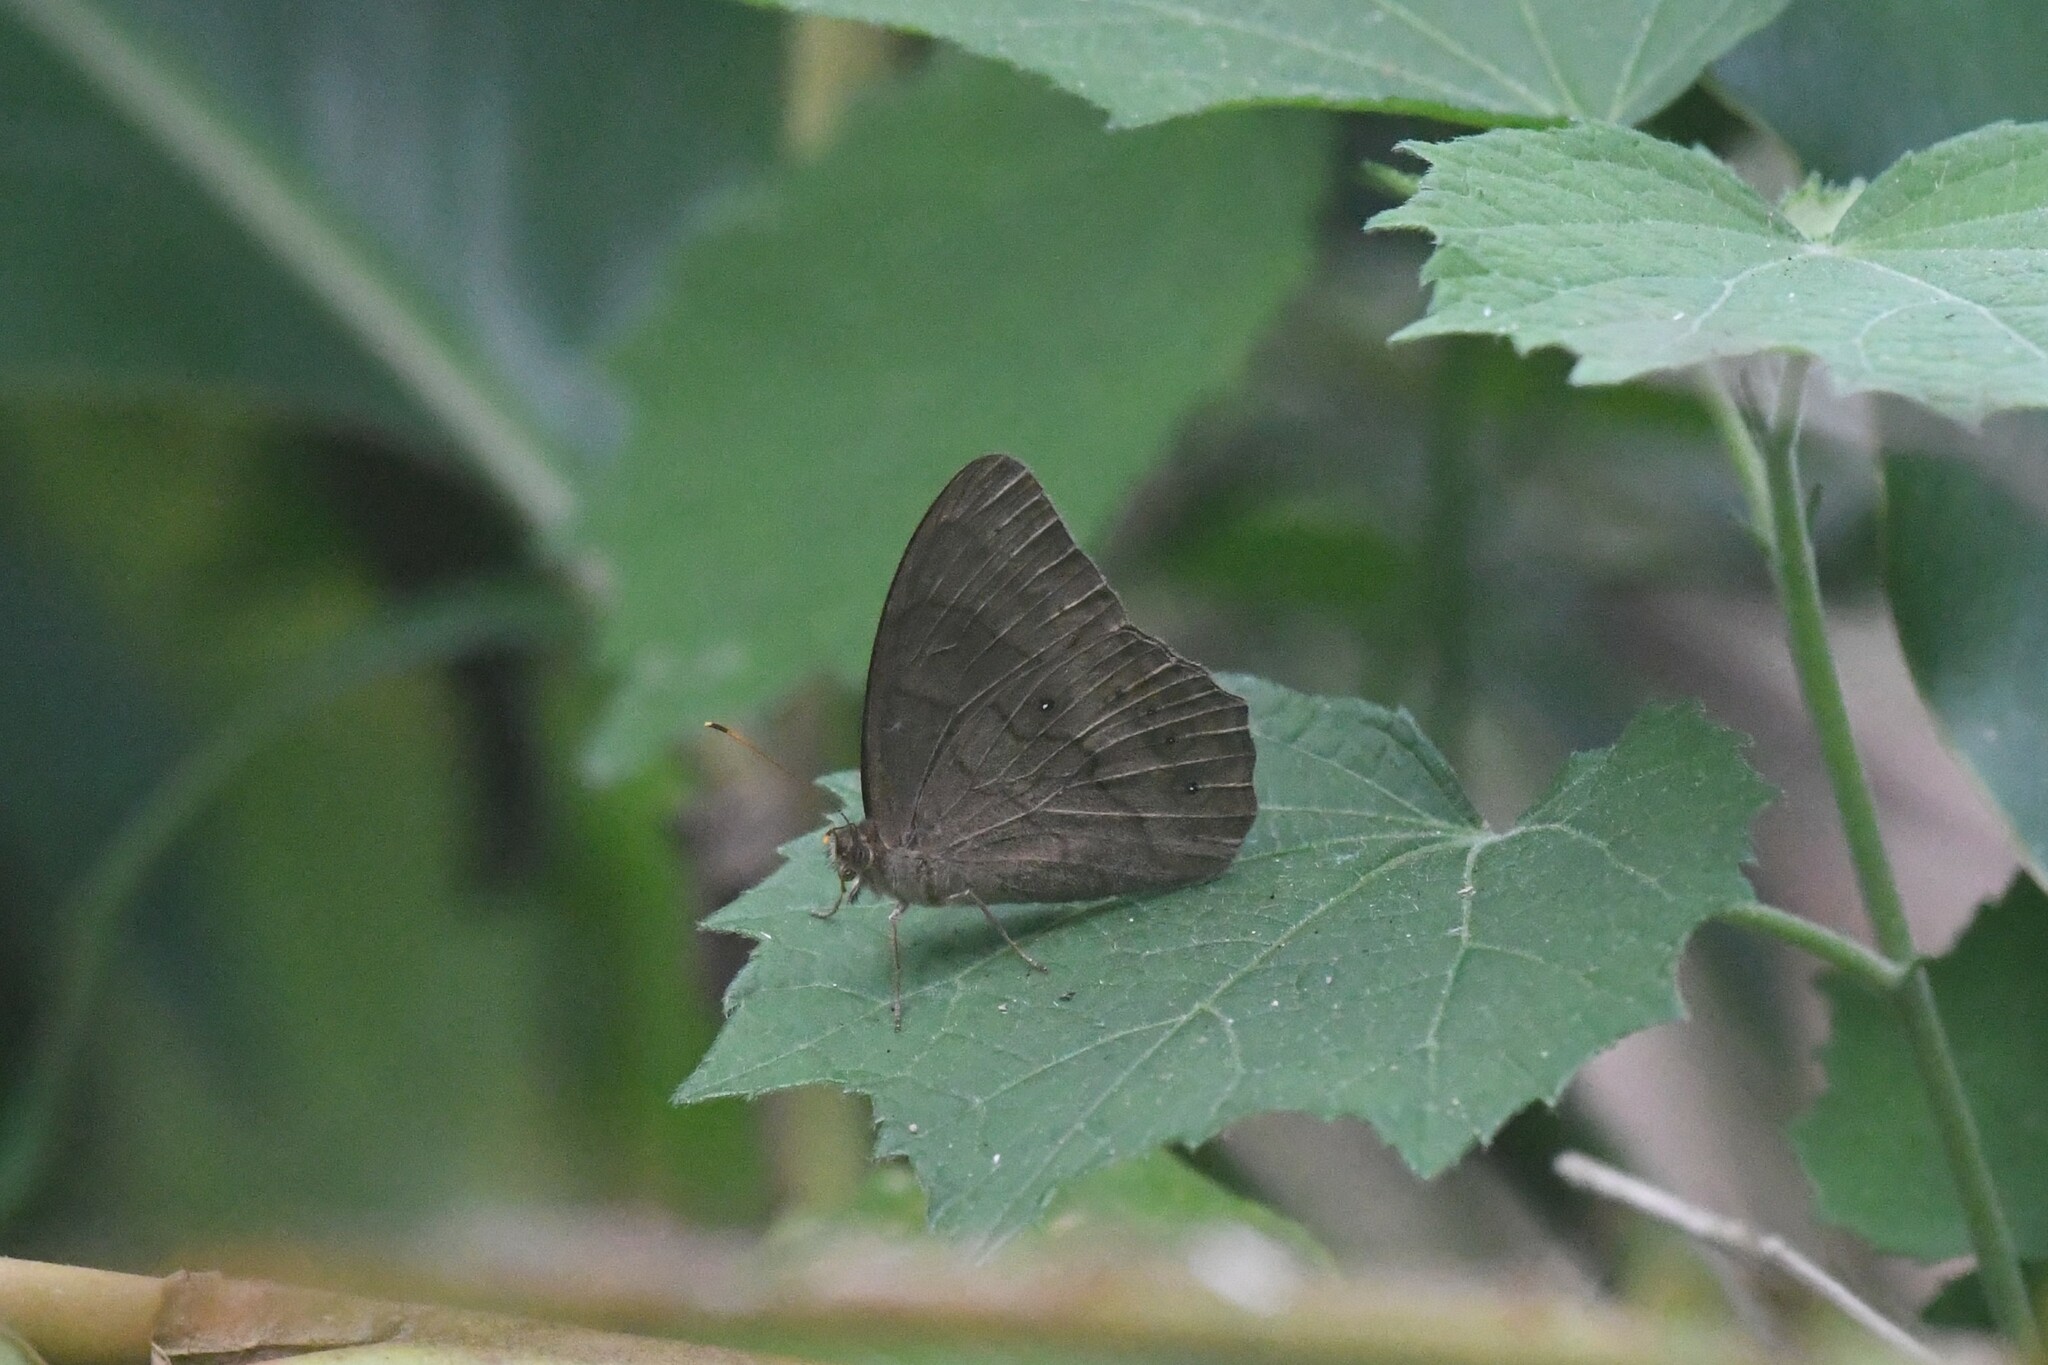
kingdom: Animalia
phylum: Arthropoda
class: Insecta
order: Lepidoptera
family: Nymphalidae
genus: Lethe
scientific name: Lethe gulnihal
